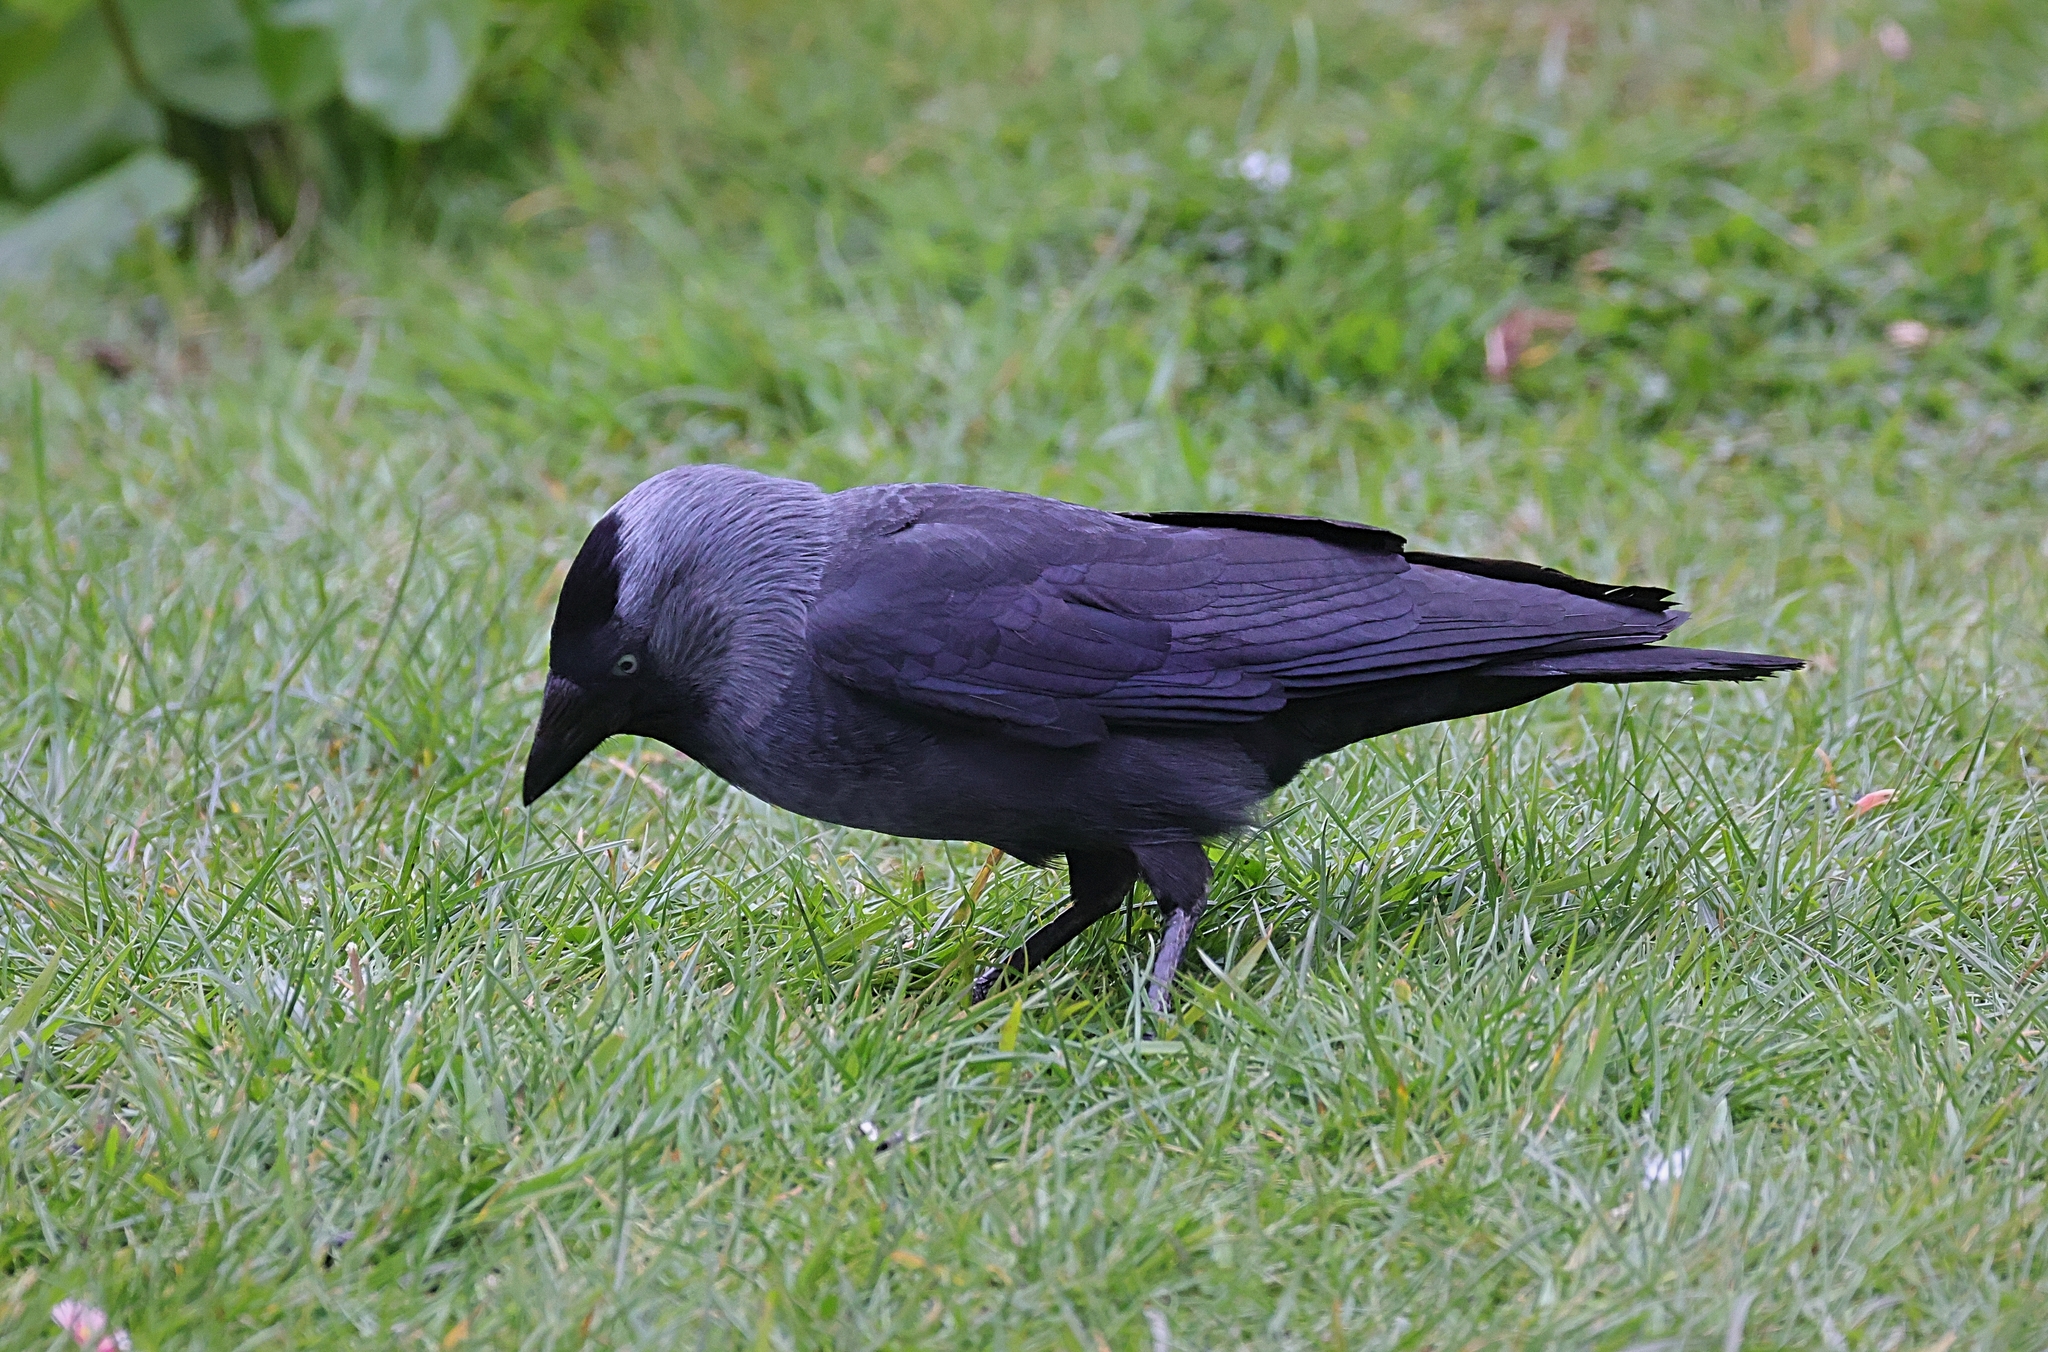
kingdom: Animalia
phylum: Chordata
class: Aves
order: Passeriformes
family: Corvidae
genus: Coloeus
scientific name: Coloeus monedula
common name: Western jackdaw
